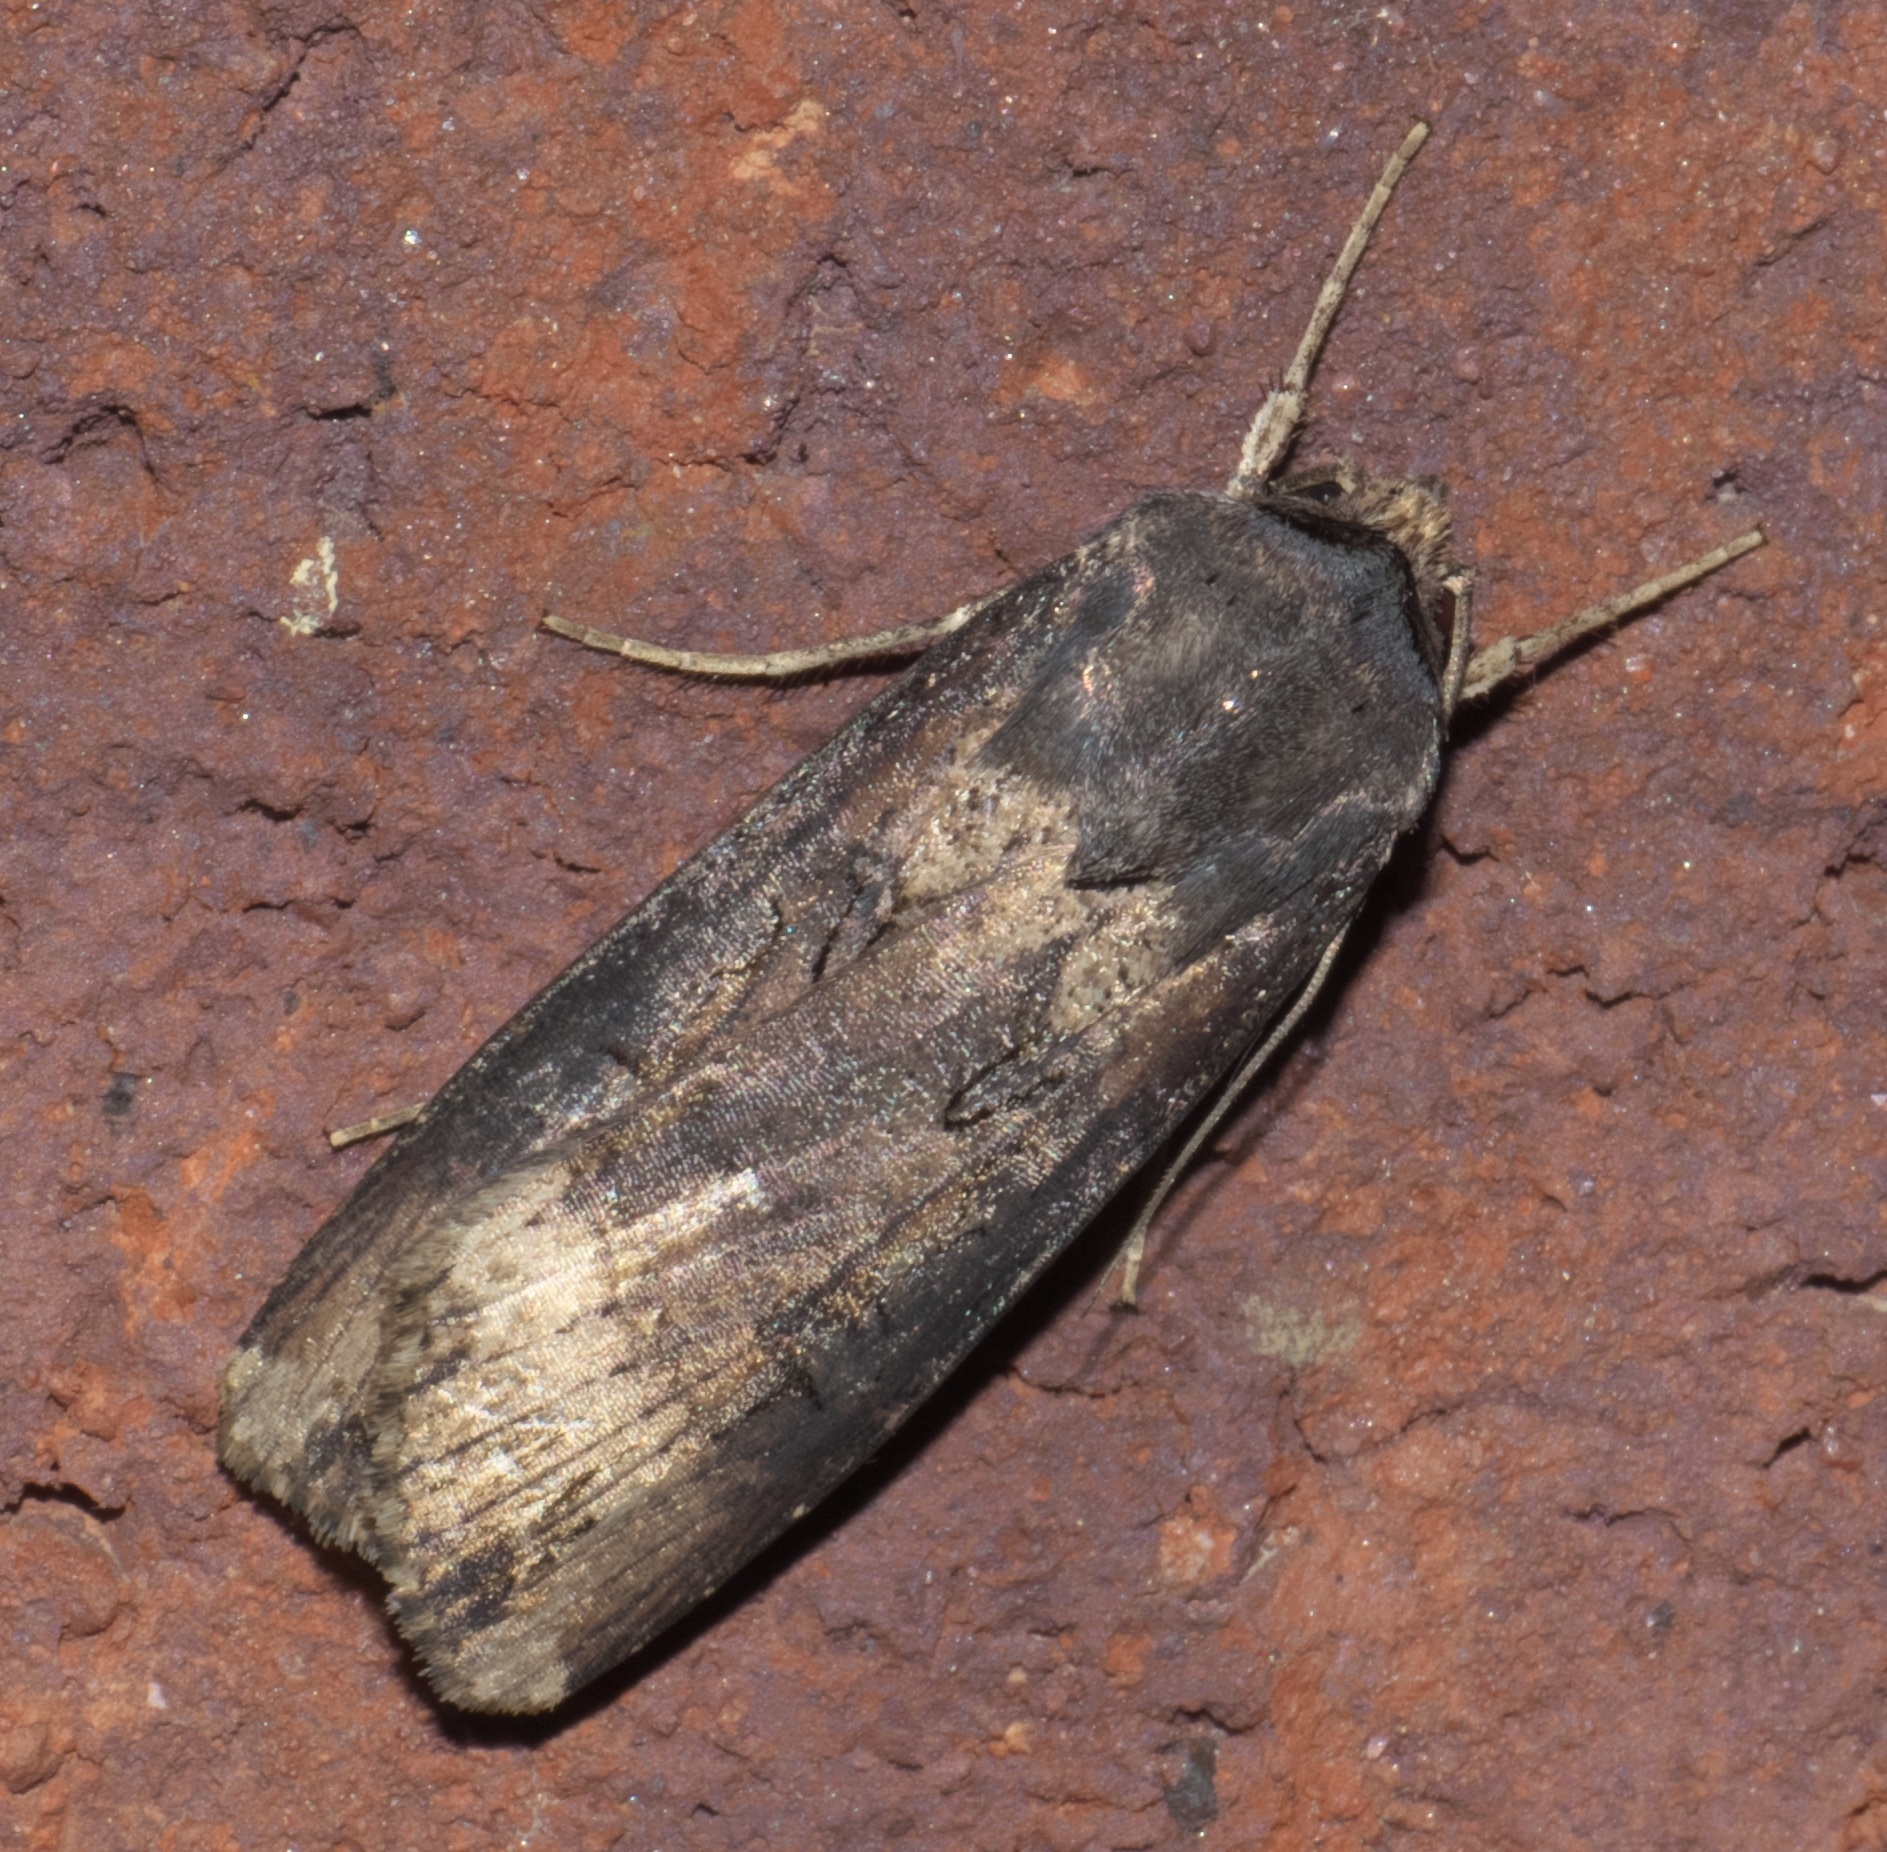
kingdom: Animalia
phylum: Arthropoda
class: Insecta
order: Lepidoptera
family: Noctuidae
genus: Agrotis
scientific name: Agrotis ipsilon
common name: Dark sword-grass
